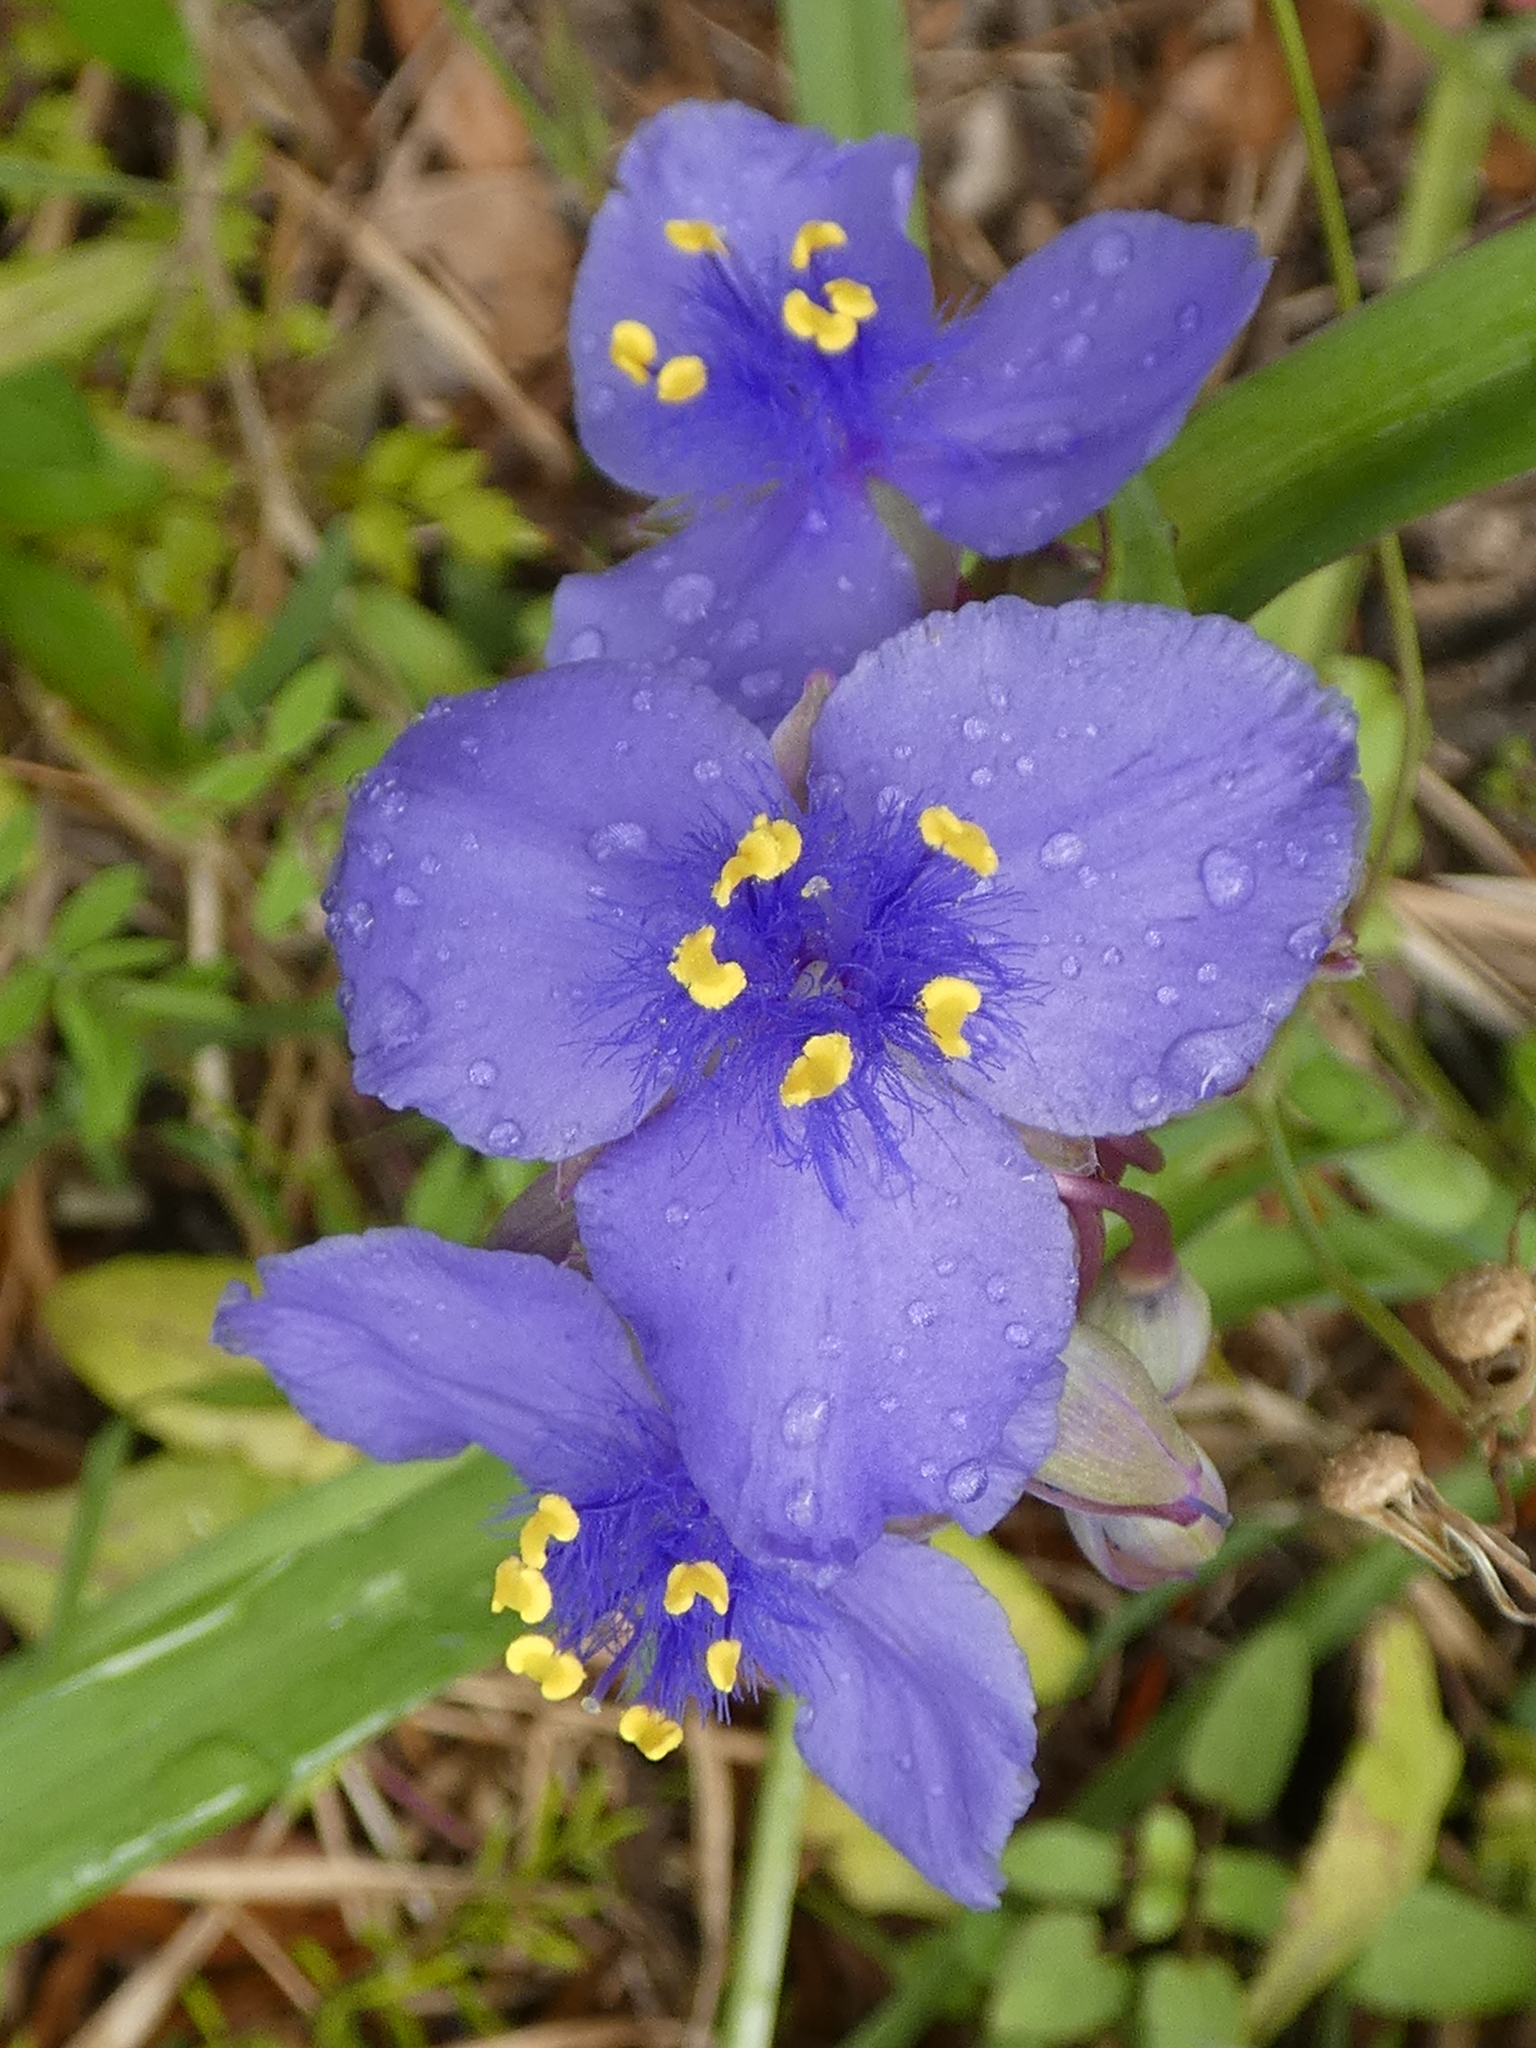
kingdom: Plantae
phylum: Tracheophyta
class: Liliopsida
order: Commelinales
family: Commelinaceae
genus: Tradescantia
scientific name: Tradescantia ohiensis
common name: Ohio spiderwort
